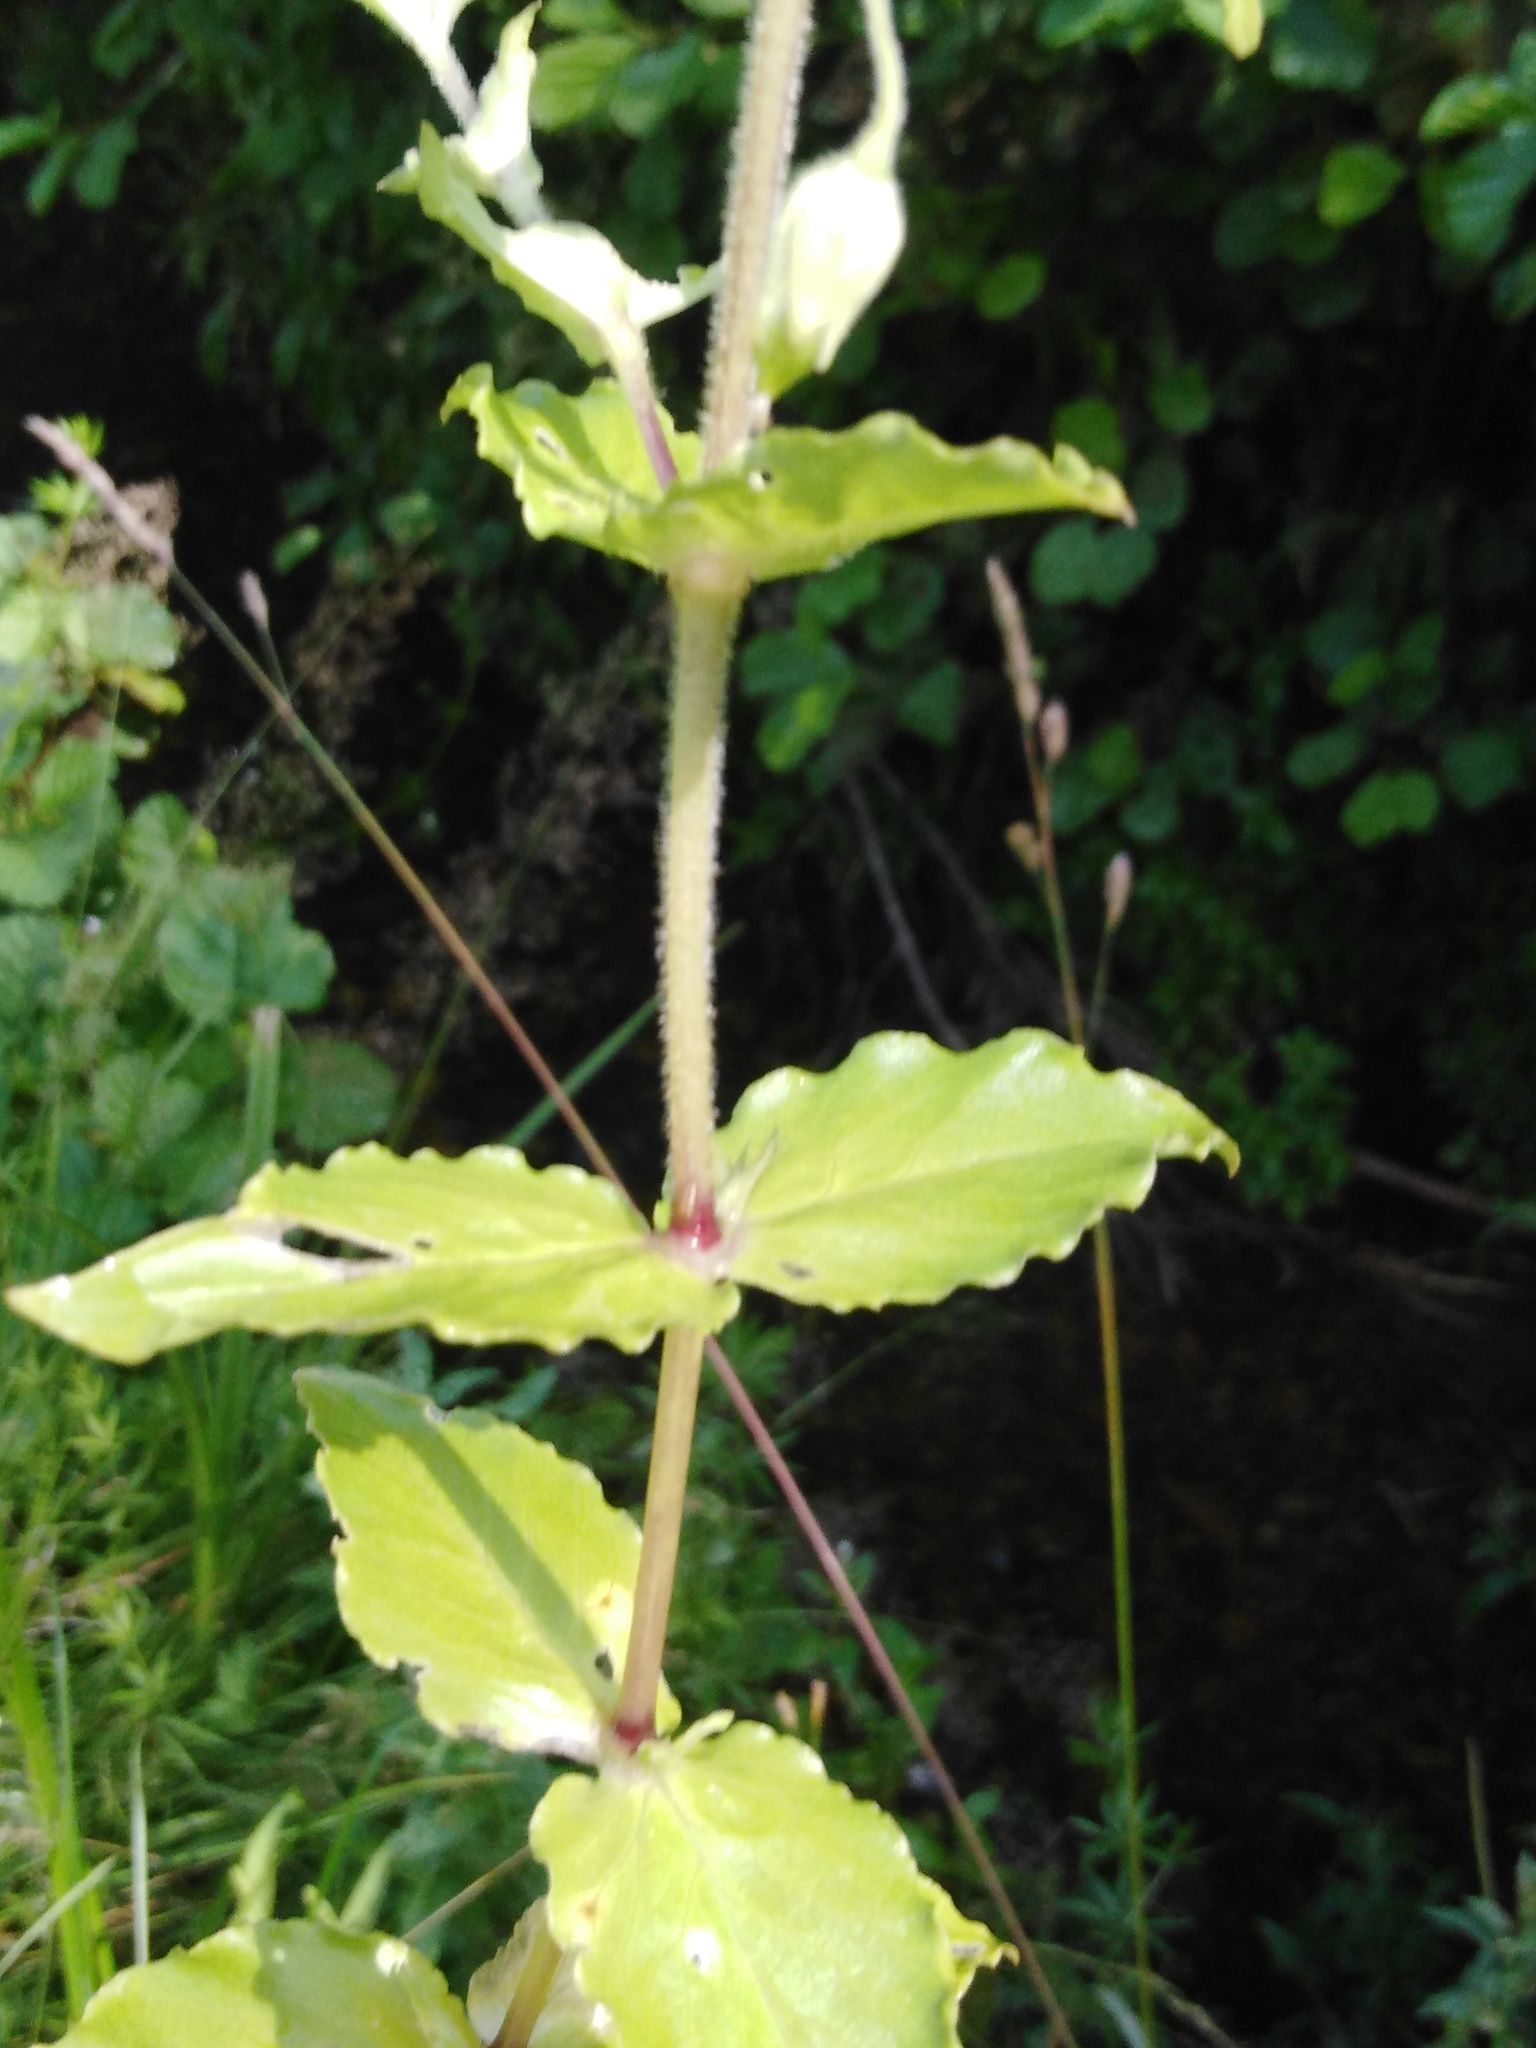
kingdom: Plantae
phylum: Tracheophyta
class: Magnoliopsida
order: Caryophyllales
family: Caryophyllaceae
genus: Stellaria
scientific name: Stellaria aquatica
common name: Water chickweed
